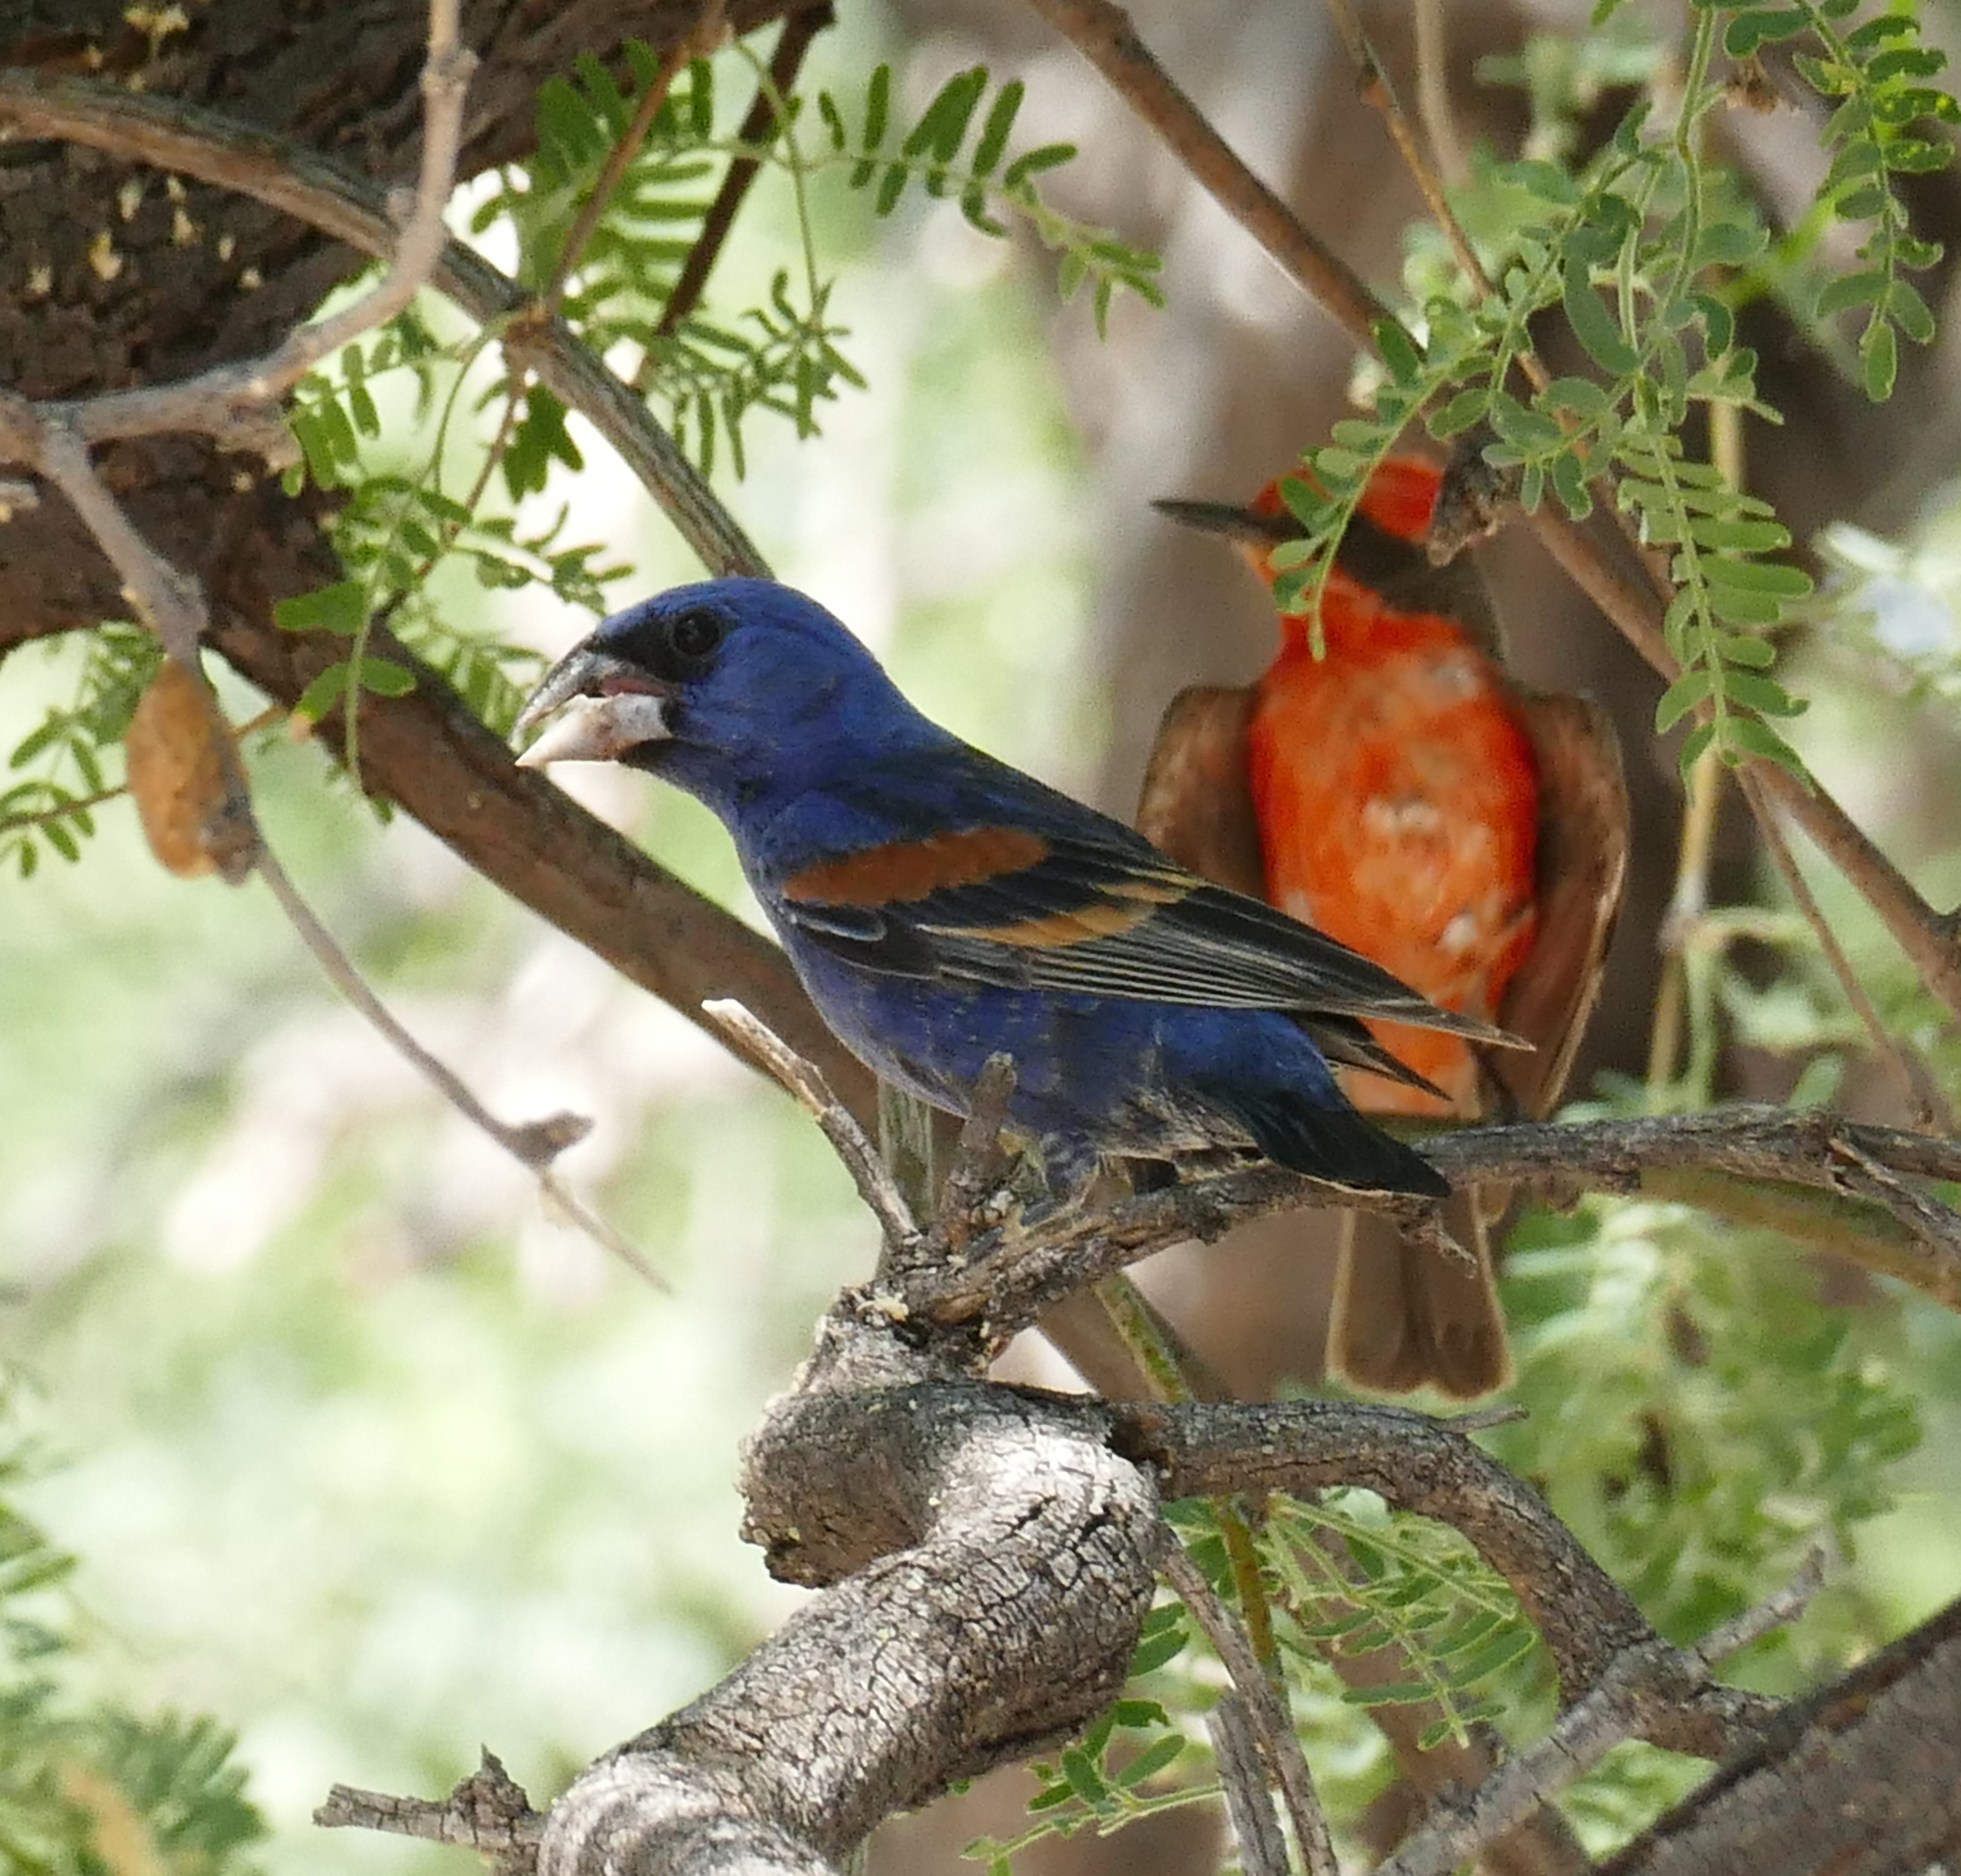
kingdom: Animalia
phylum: Chordata
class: Aves
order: Passeriformes
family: Tyrannidae
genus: Pyrocephalus
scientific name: Pyrocephalus rubinus
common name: Vermilion flycatcher
